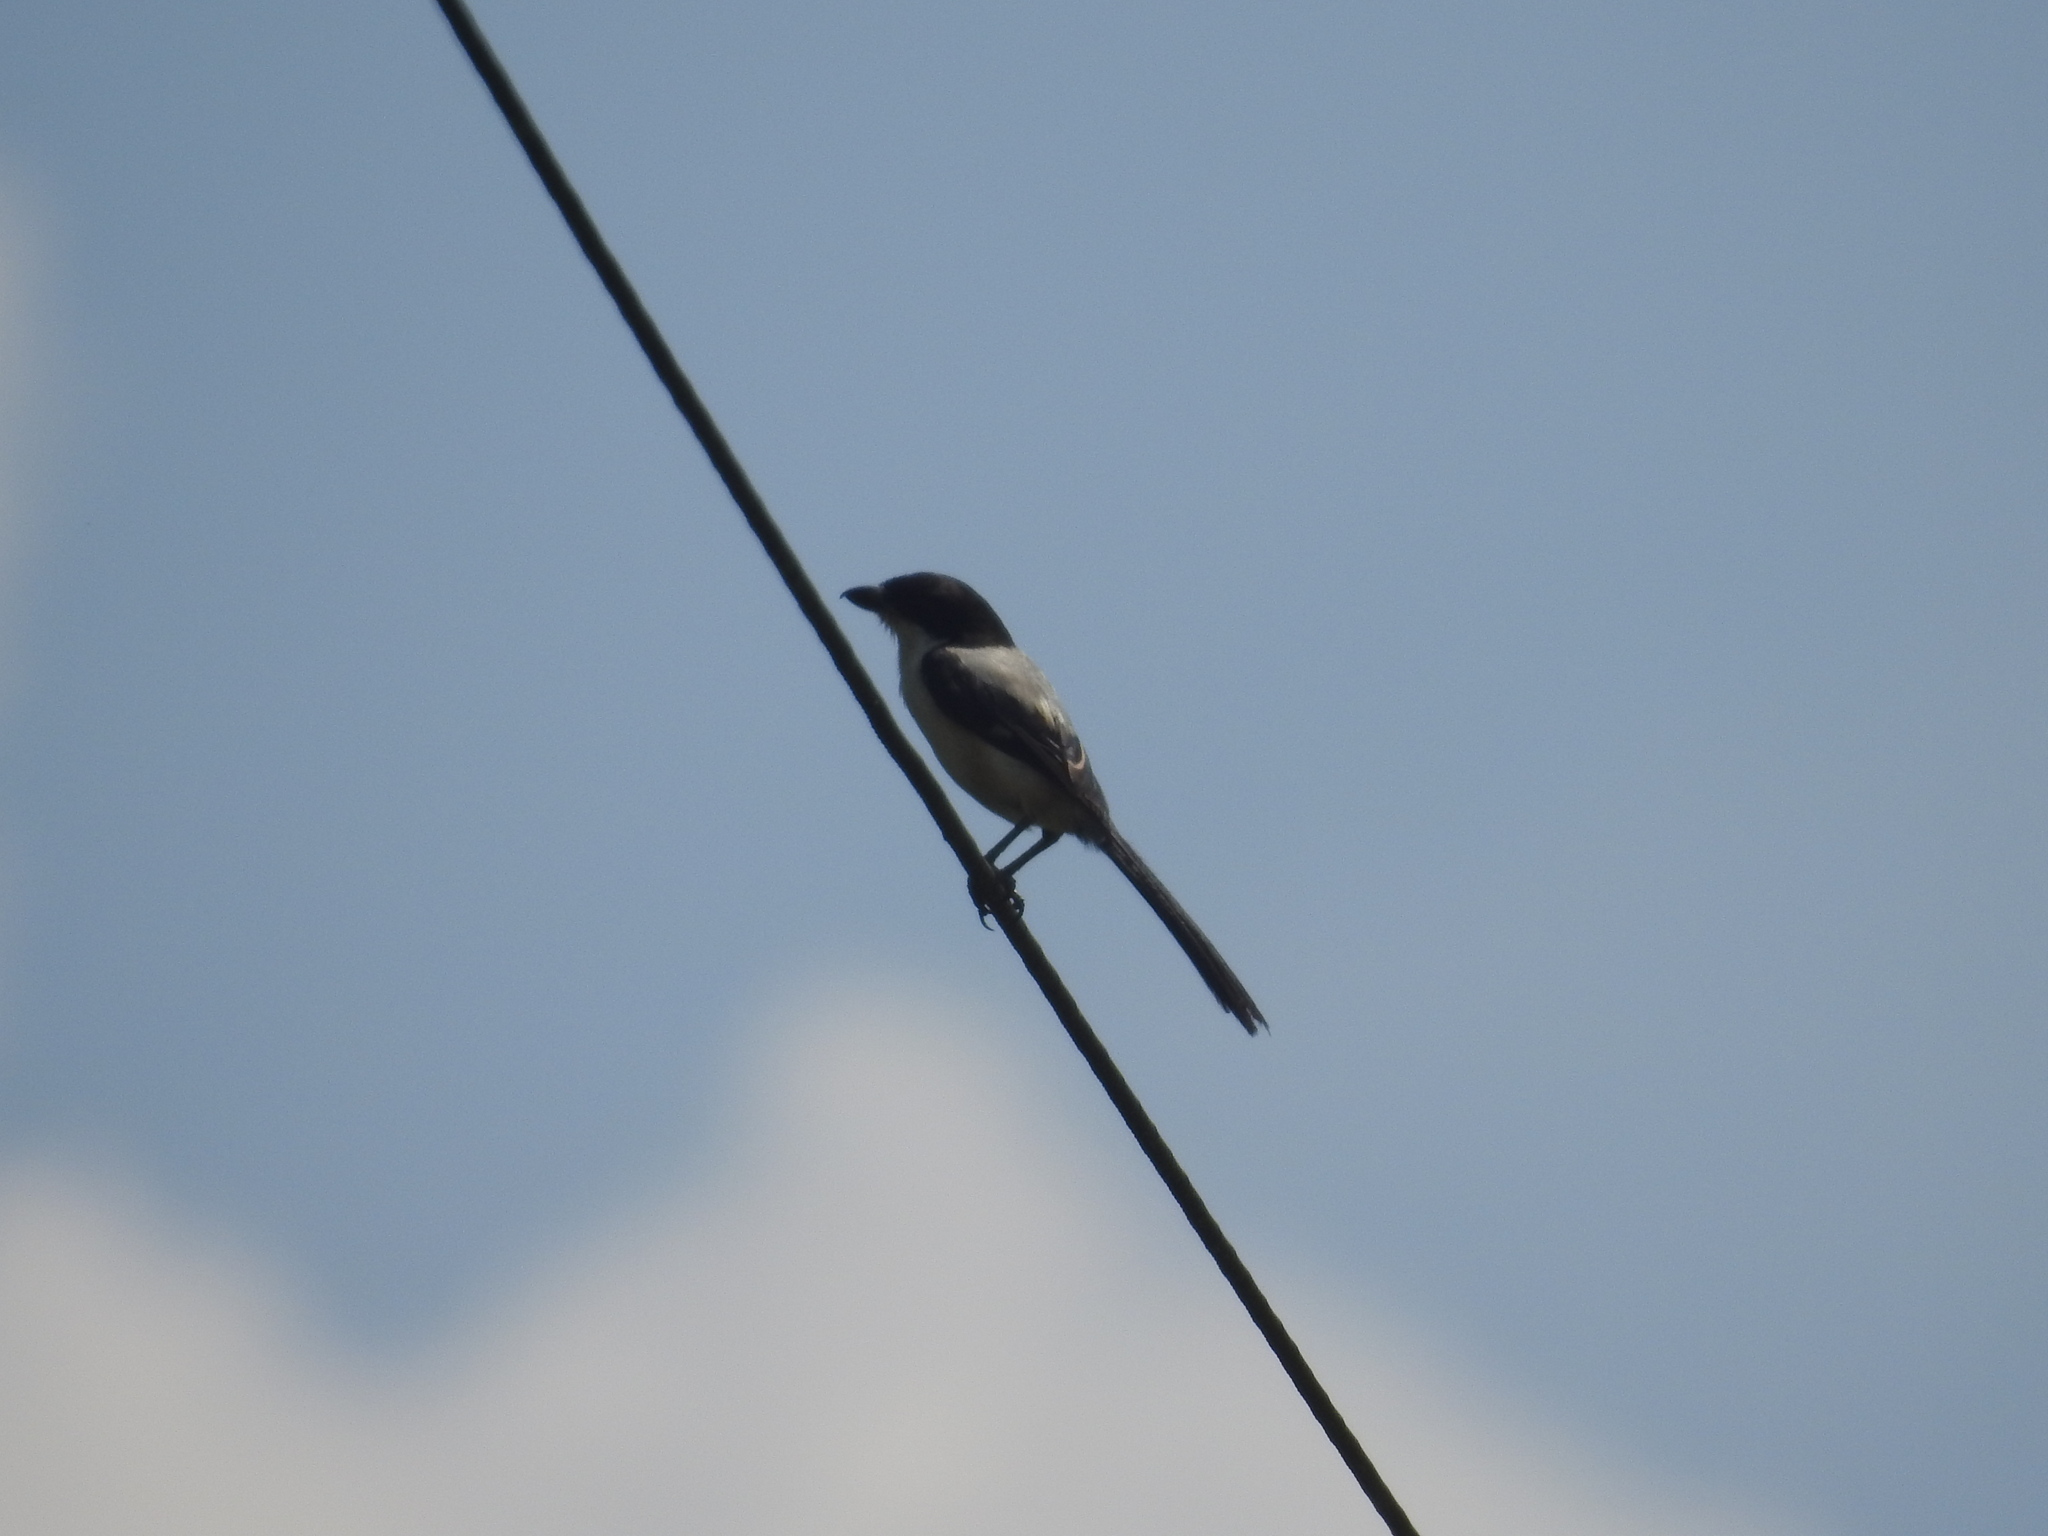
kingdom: Animalia
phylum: Chordata
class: Aves
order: Passeriformes
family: Laniidae
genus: Lanius
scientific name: Lanius schach
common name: Long-tailed shrike
